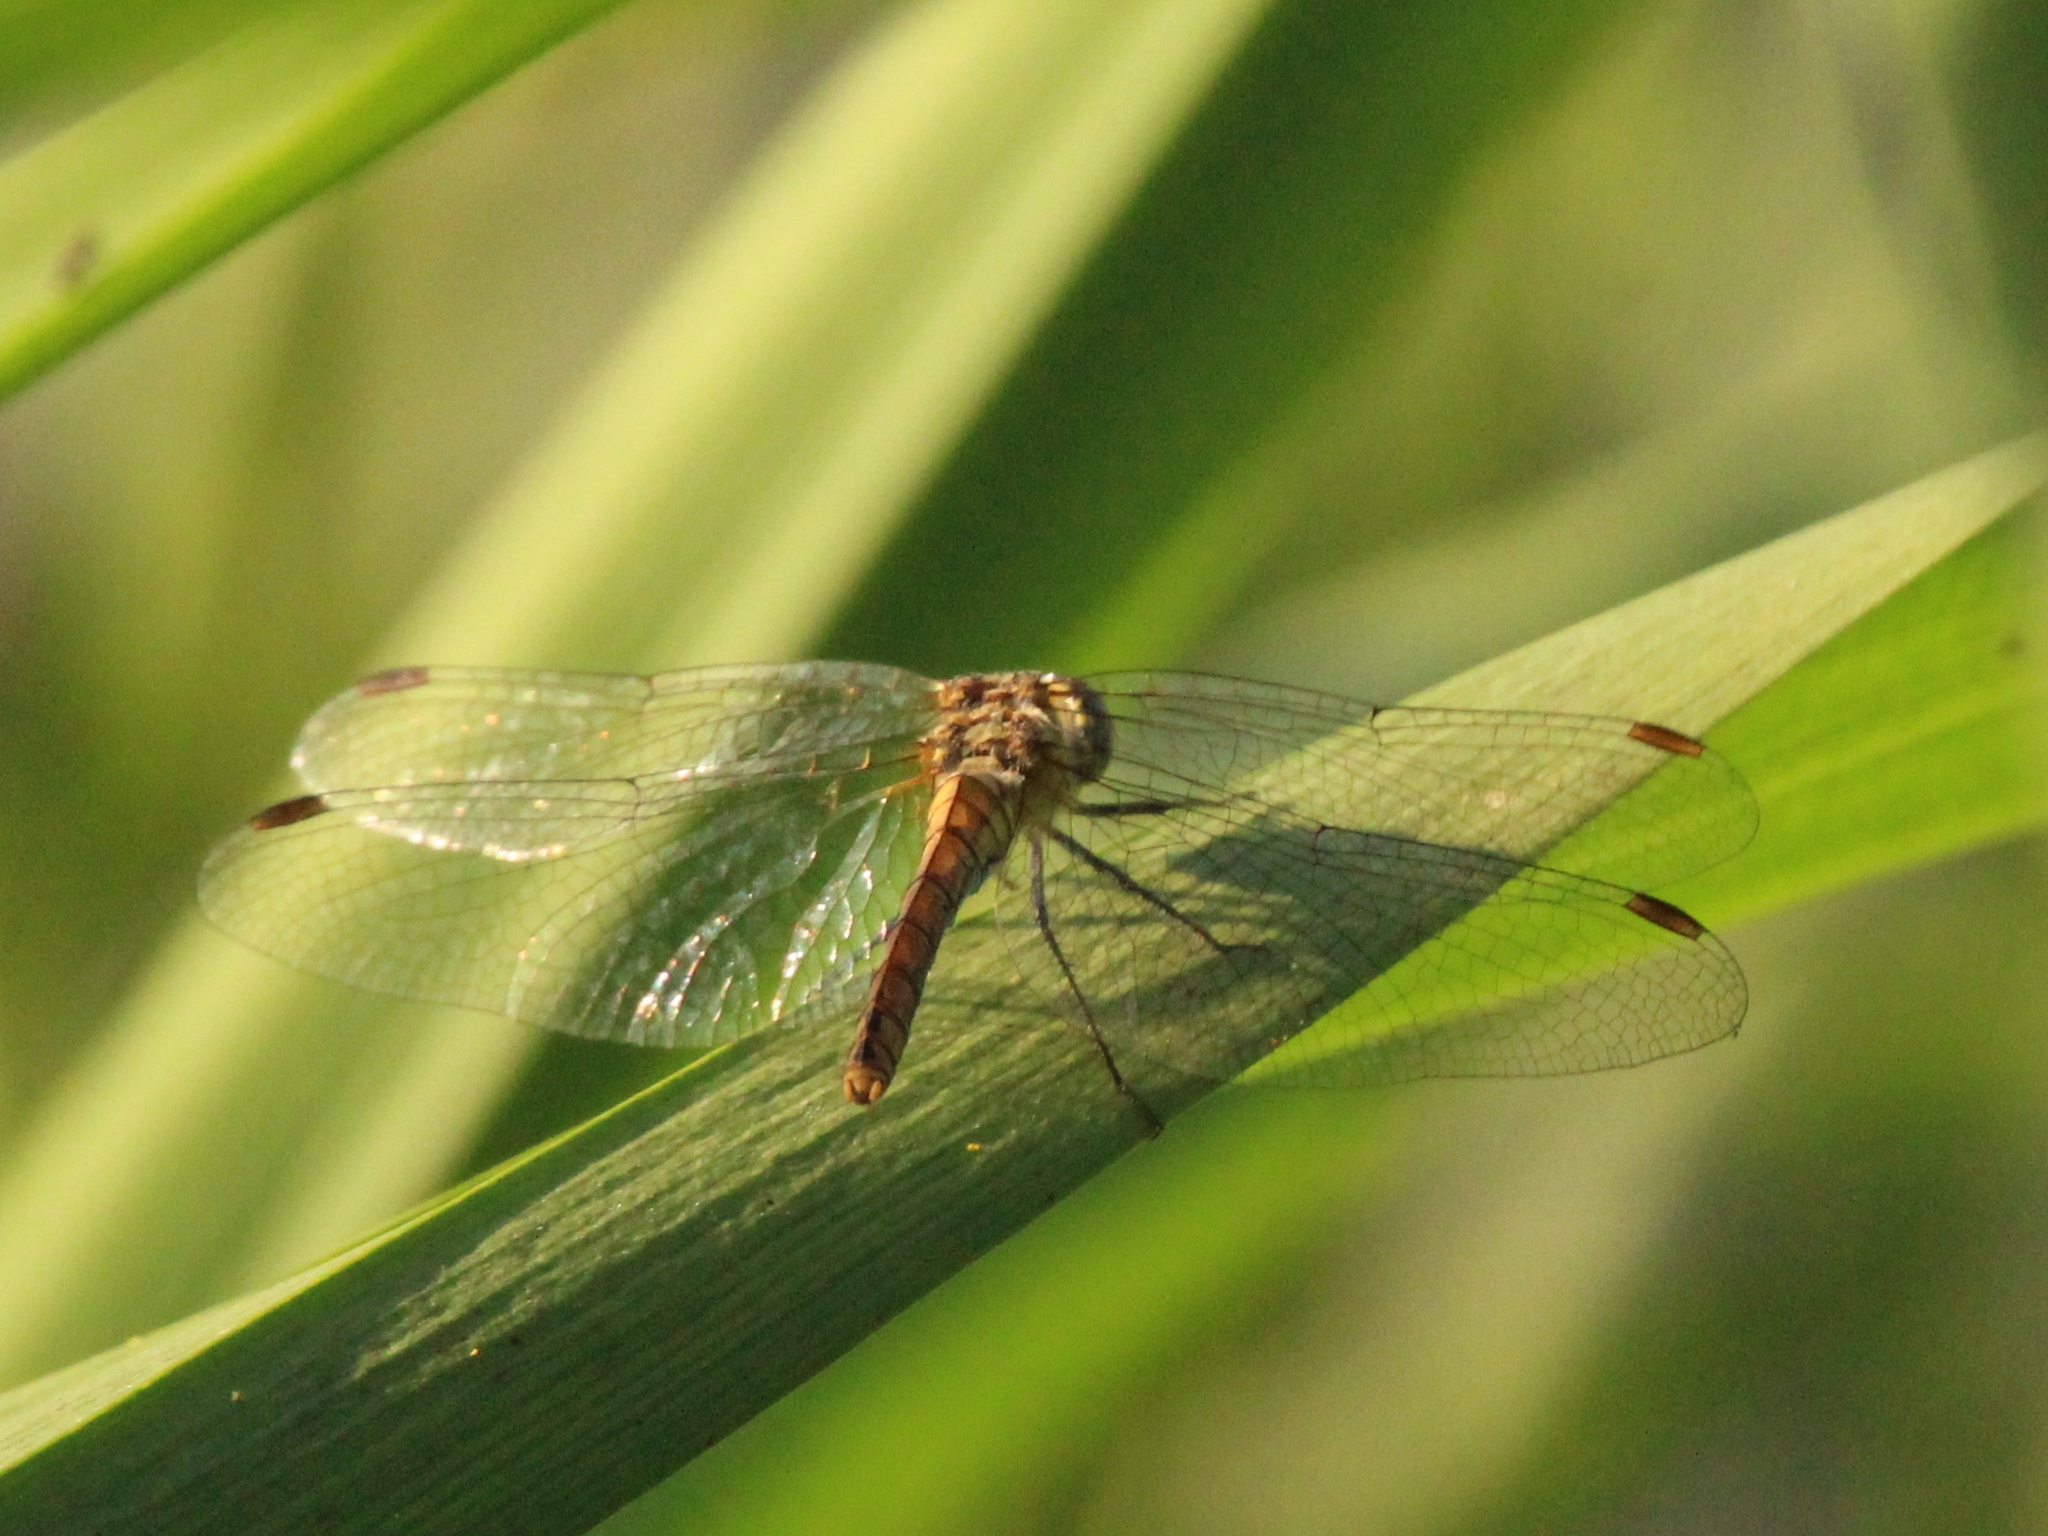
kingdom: Animalia
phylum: Arthropoda
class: Insecta
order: Odonata
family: Libellulidae
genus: Sympetrum
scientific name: Sympetrum sanguineum
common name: Ruddy darter
